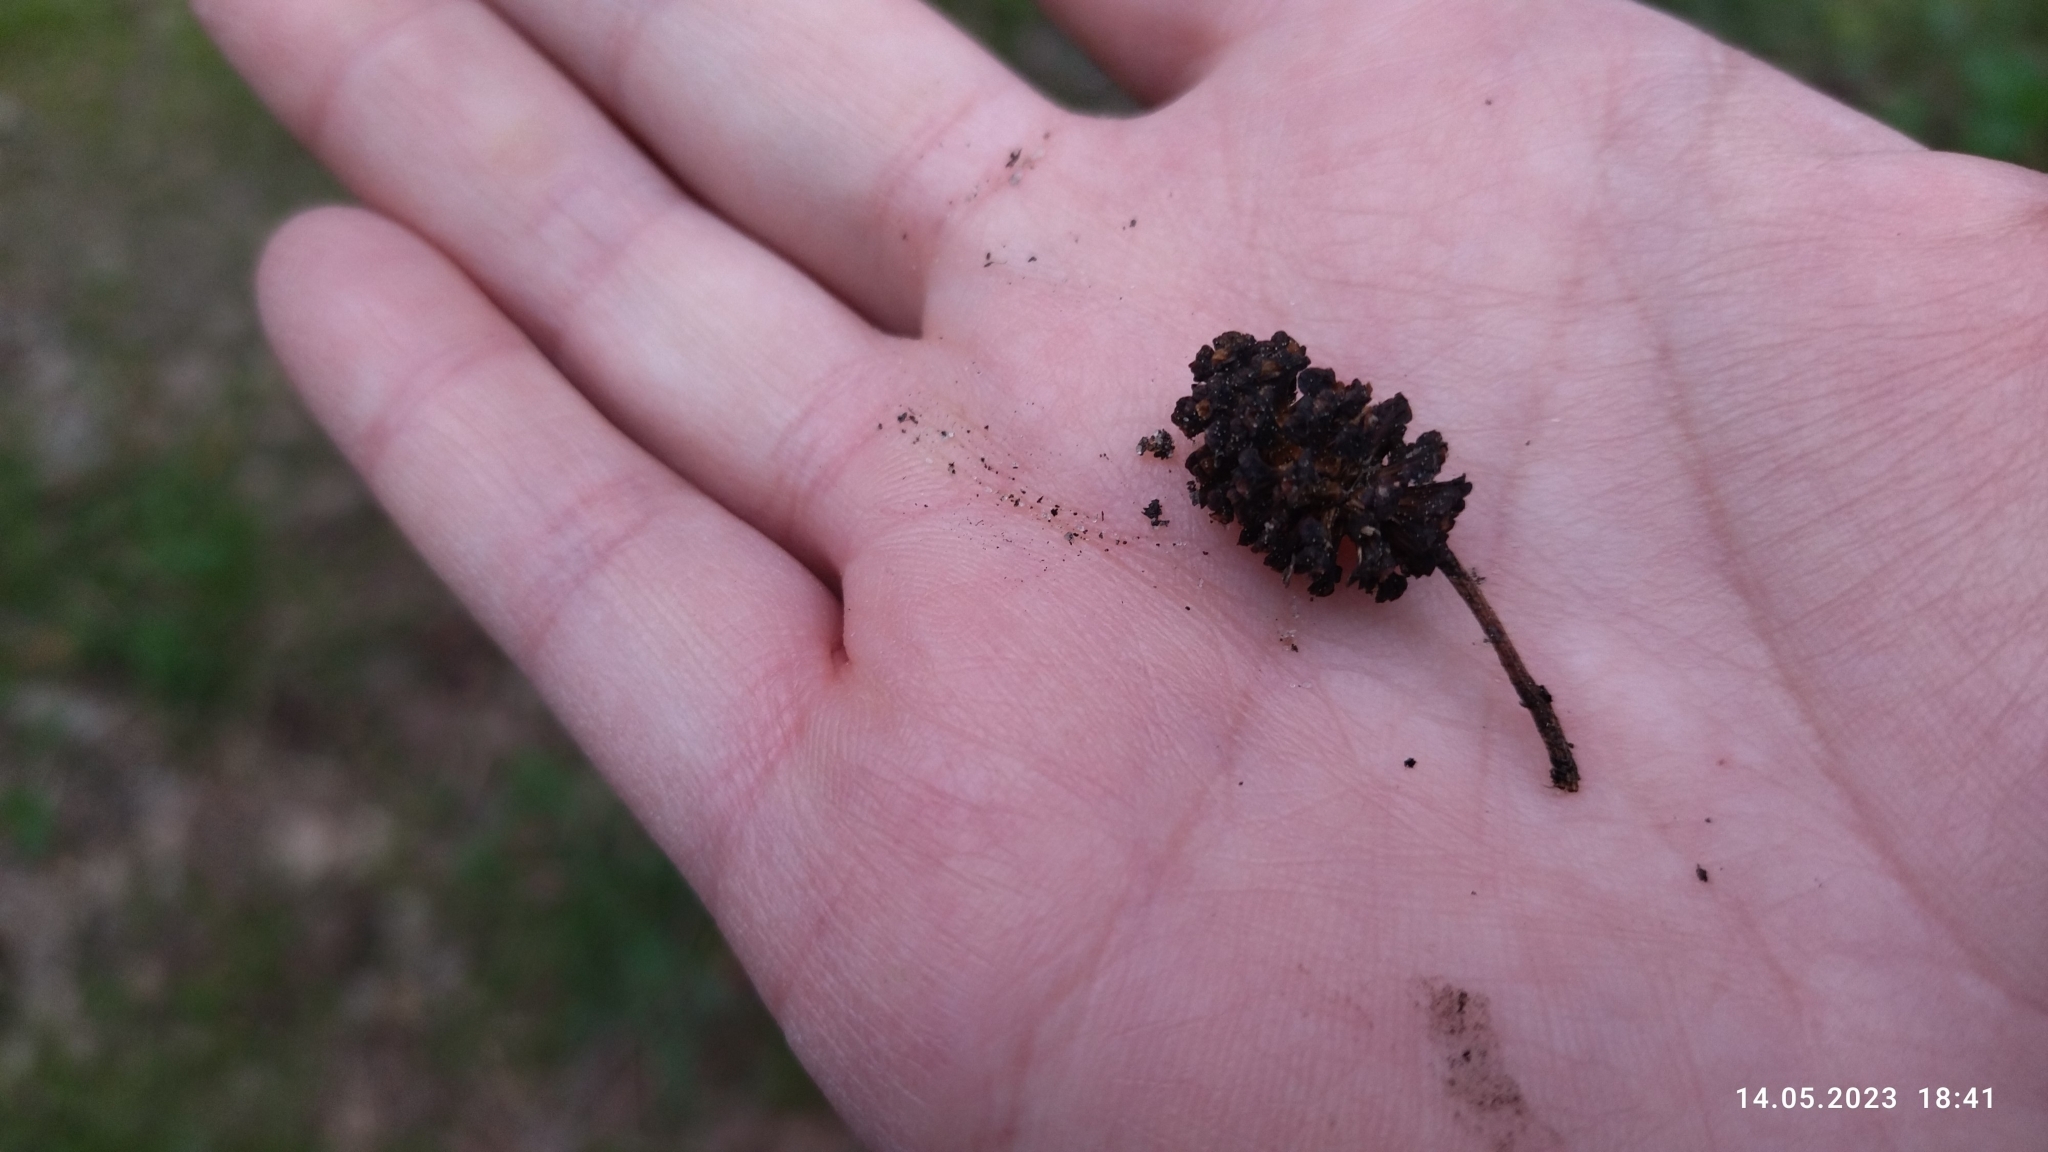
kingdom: Plantae
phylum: Tracheophyta
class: Magnoliopsida
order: Fagales
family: Betulaceae
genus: Alnus
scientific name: Alnus glutinosa
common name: Black alder
